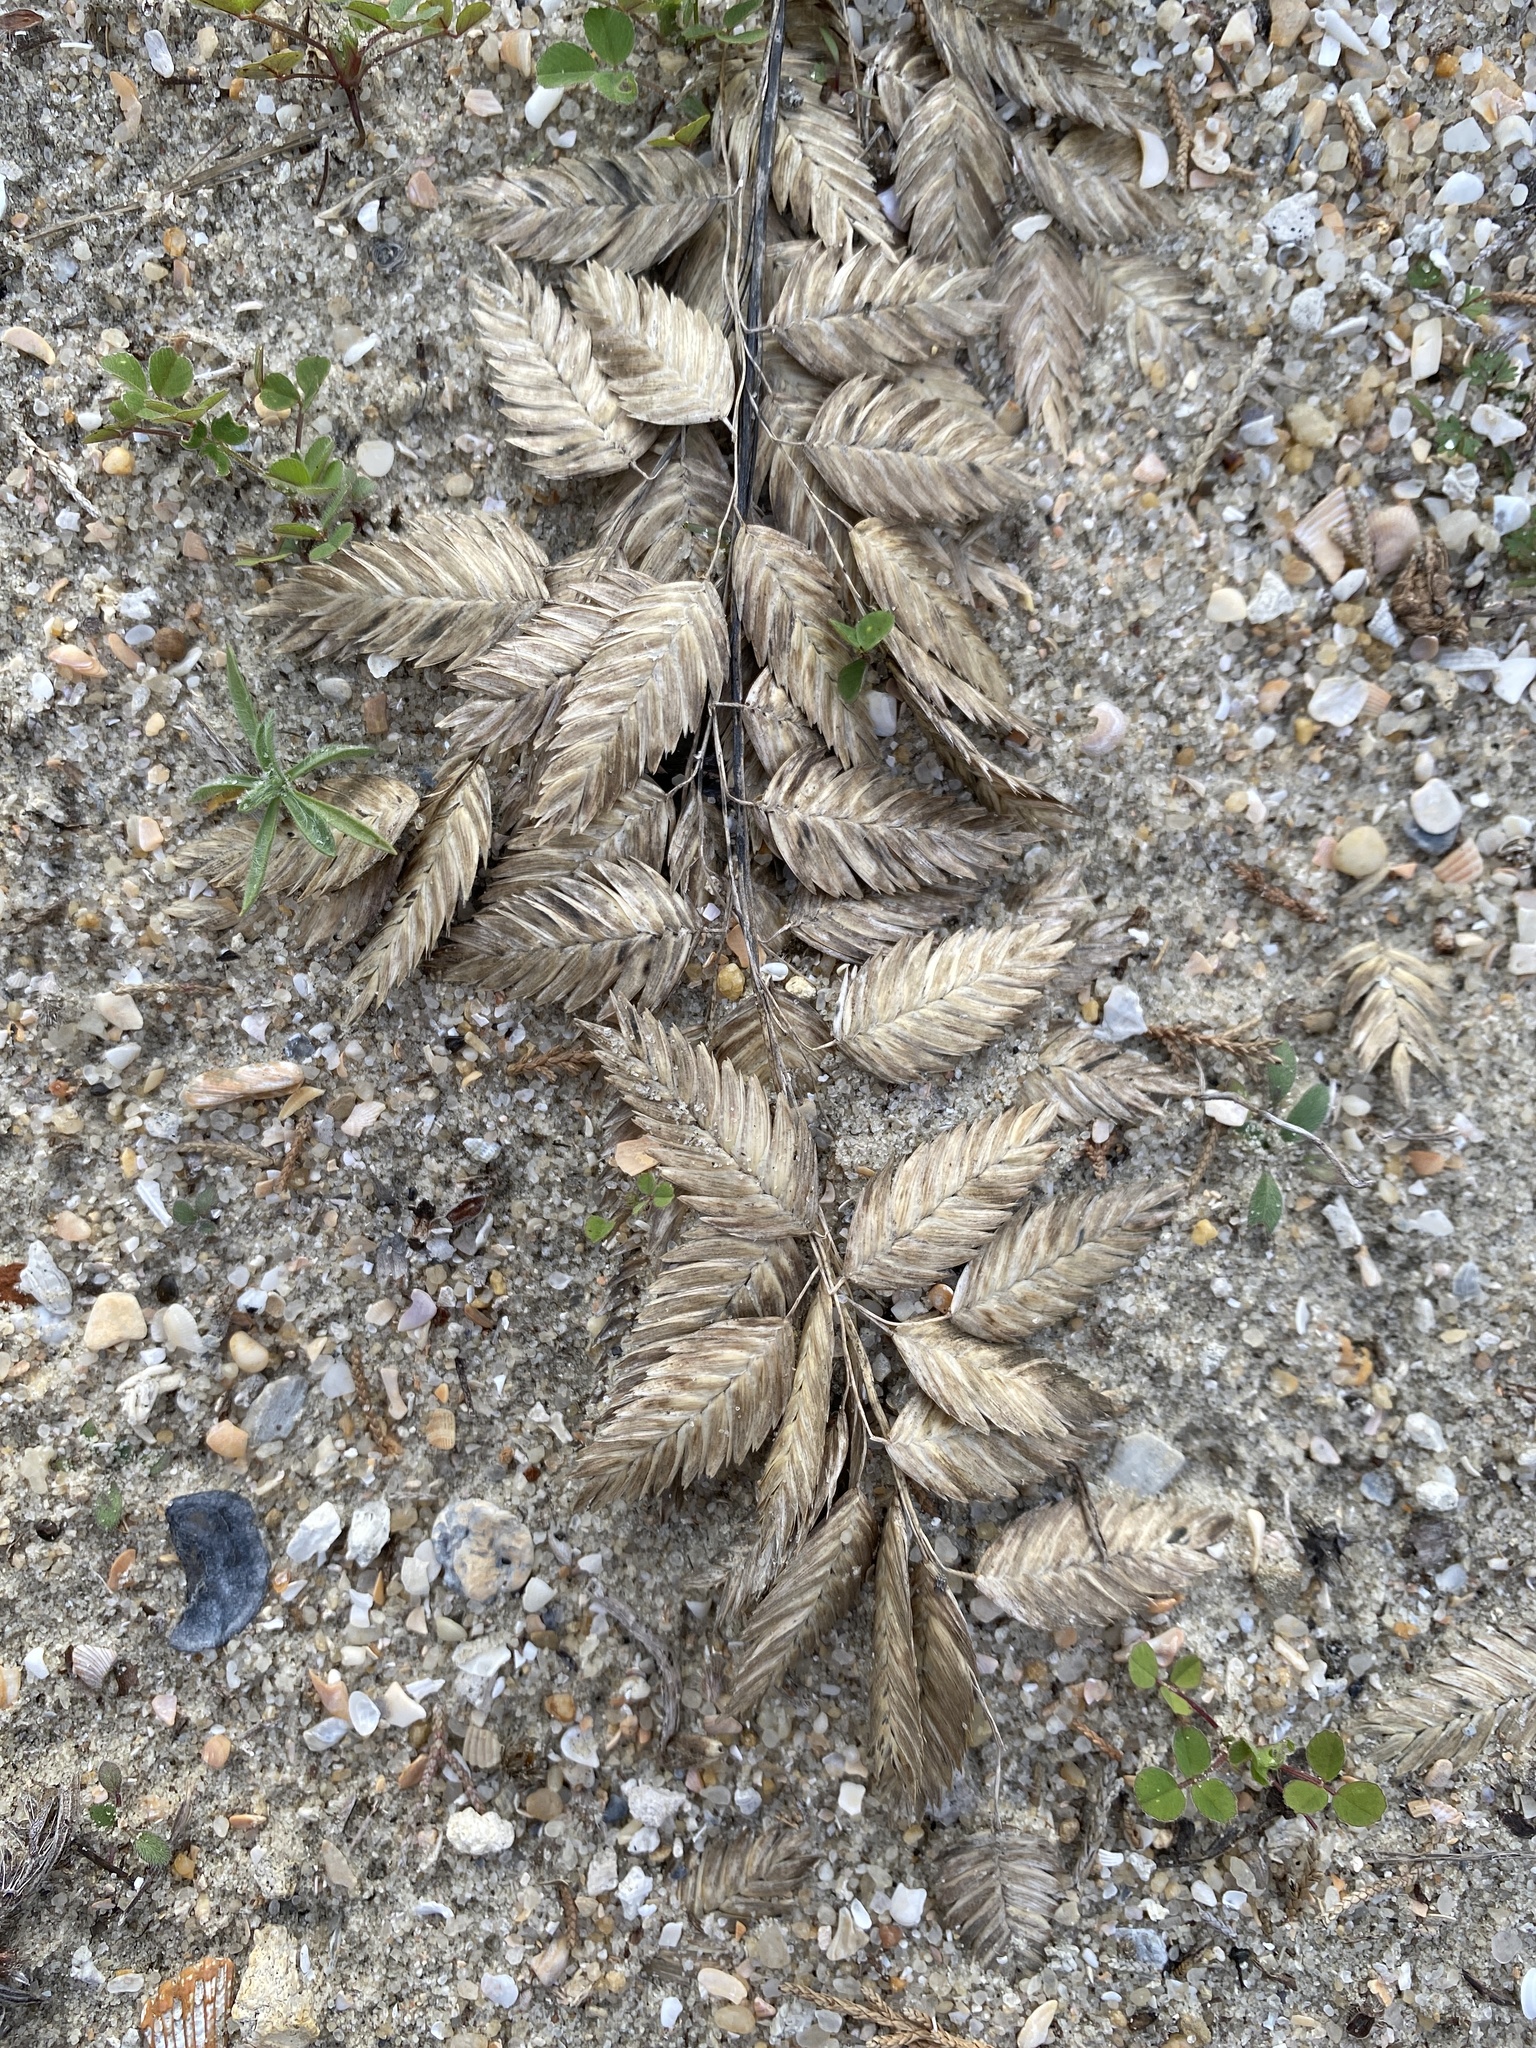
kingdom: Plantae
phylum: Tracheophyta
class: Liliopsida
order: Poales
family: Poaceae
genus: Uniola
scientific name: Uniola paniculata
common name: Seaside-oats
